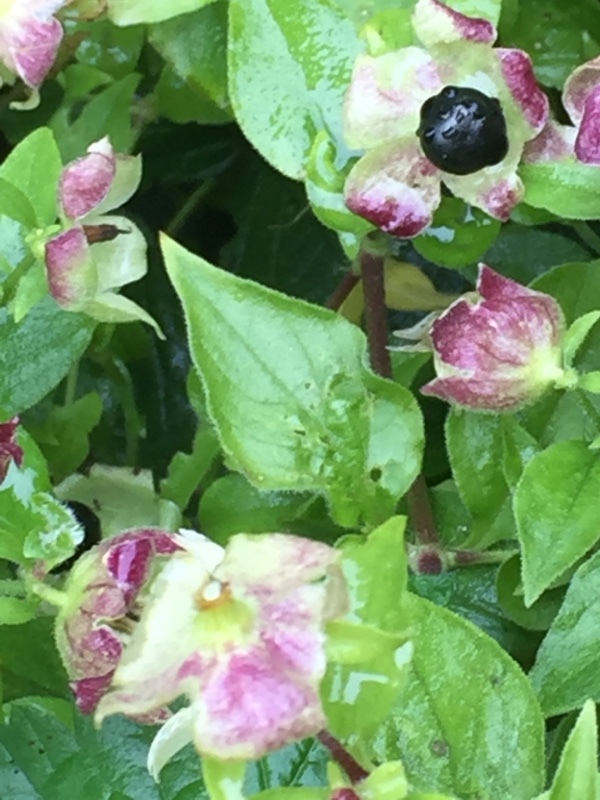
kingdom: Plantae
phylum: Tracheophyta
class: Magnoliopsida
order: Caryophyllales
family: Caryophyllaceae
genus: Silene
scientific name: Silene baccifera
